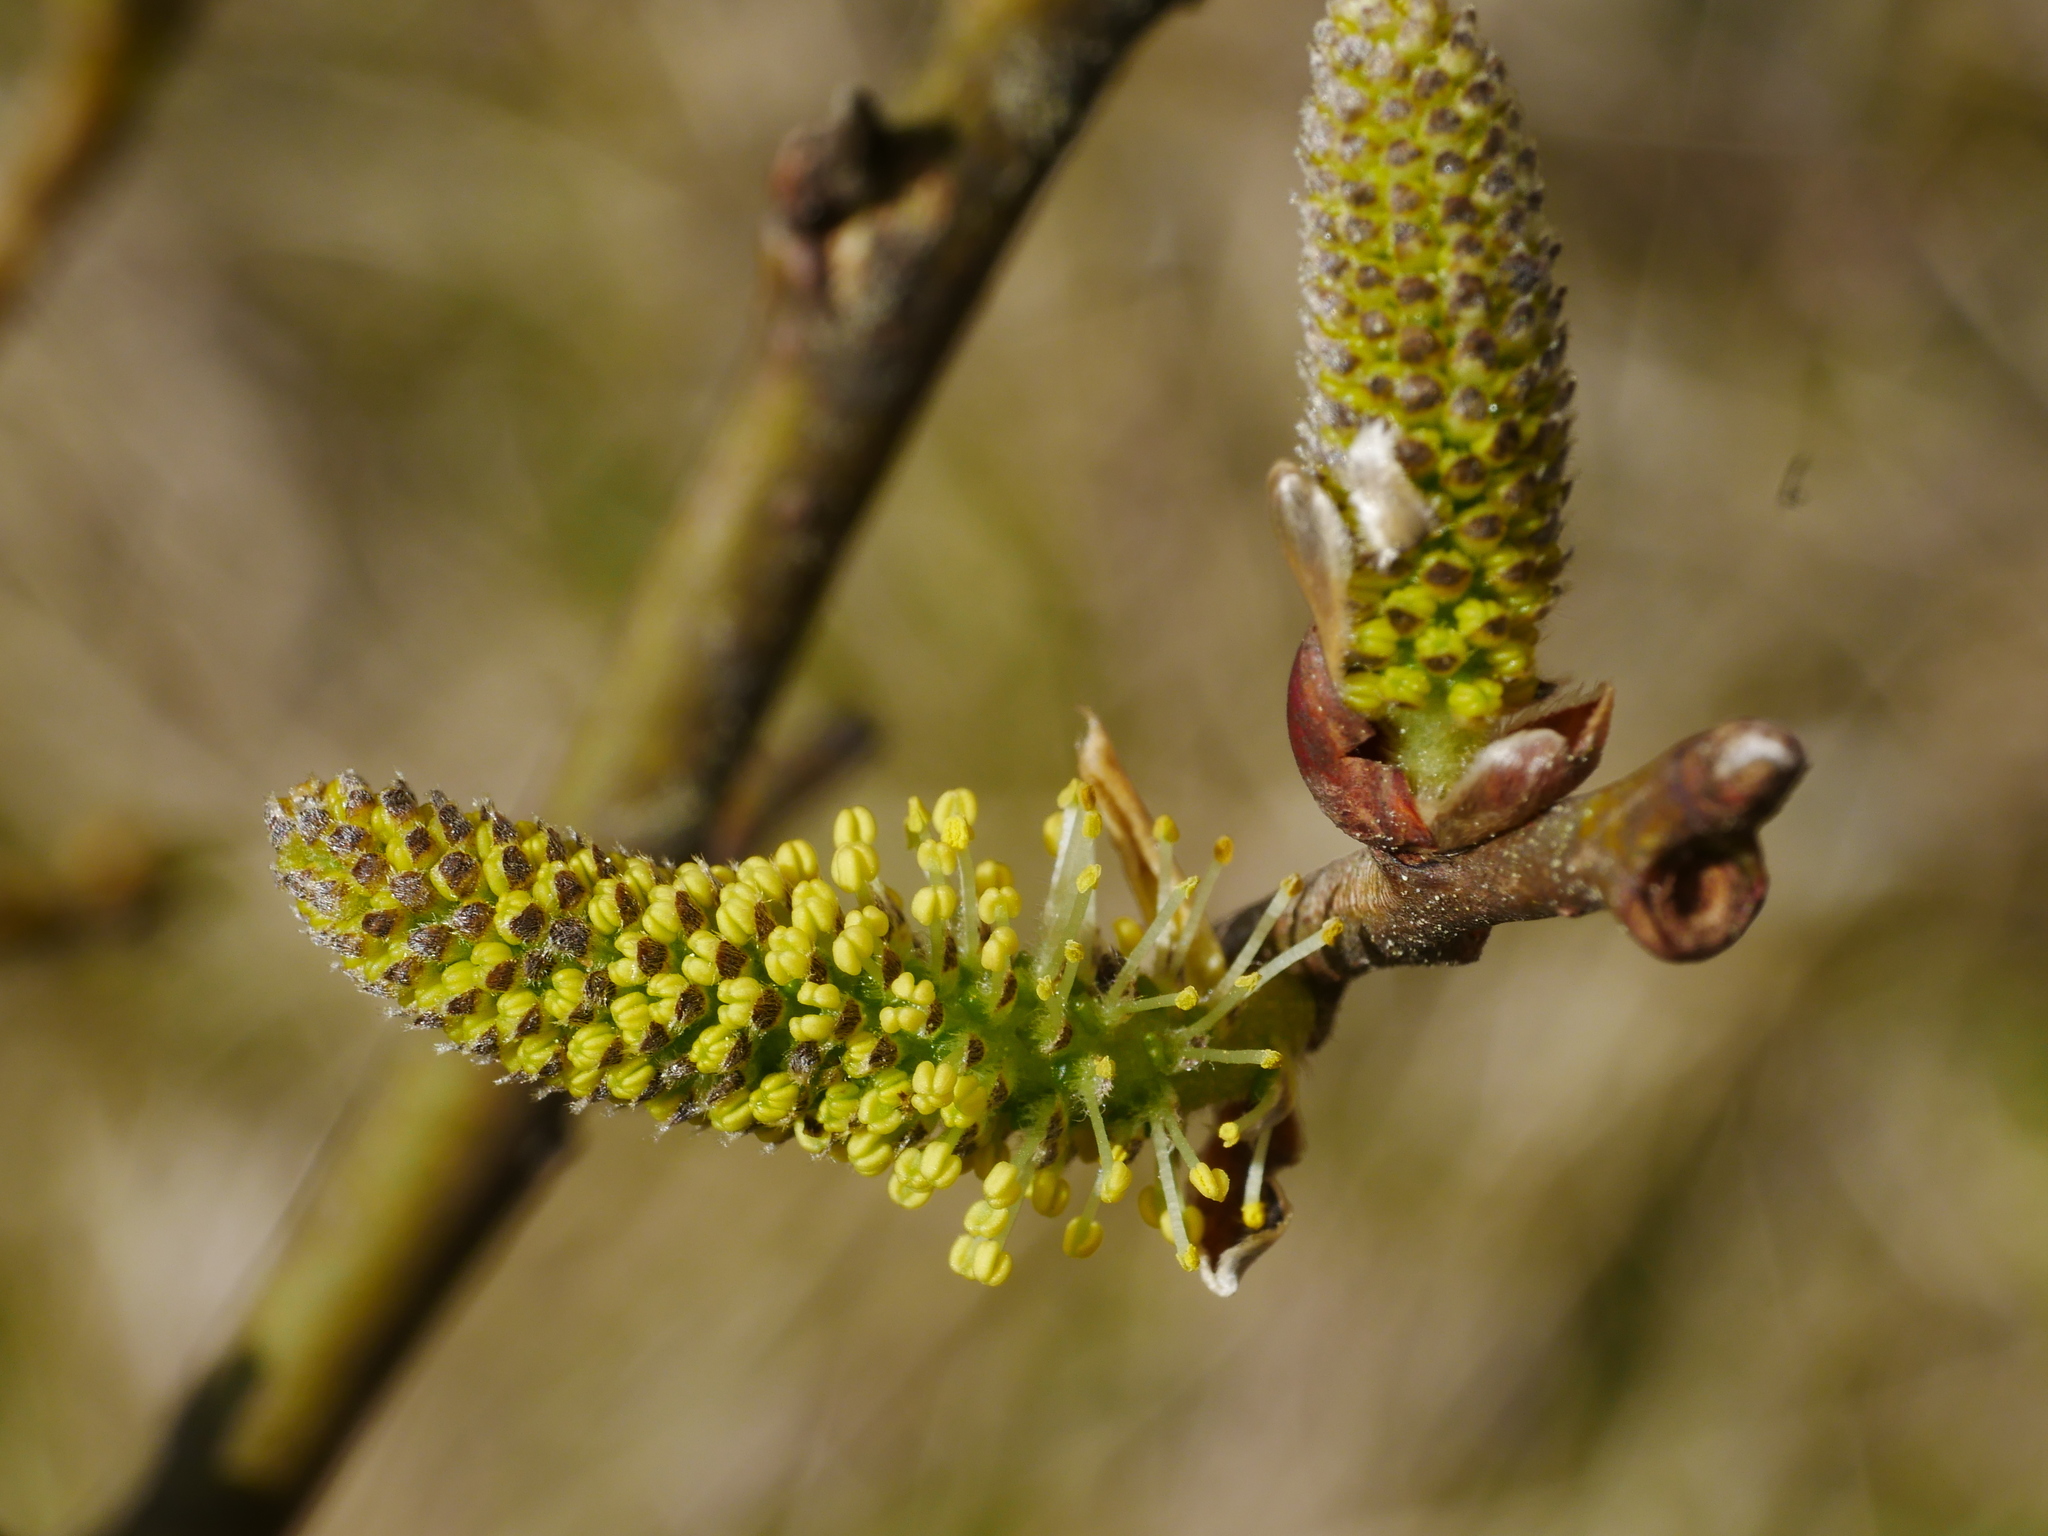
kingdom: Plantae
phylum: Tracheophyta
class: Magnoliopsida
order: Malpighiales
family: Salicaceae
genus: Salix
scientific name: Salix fulvopubescens
